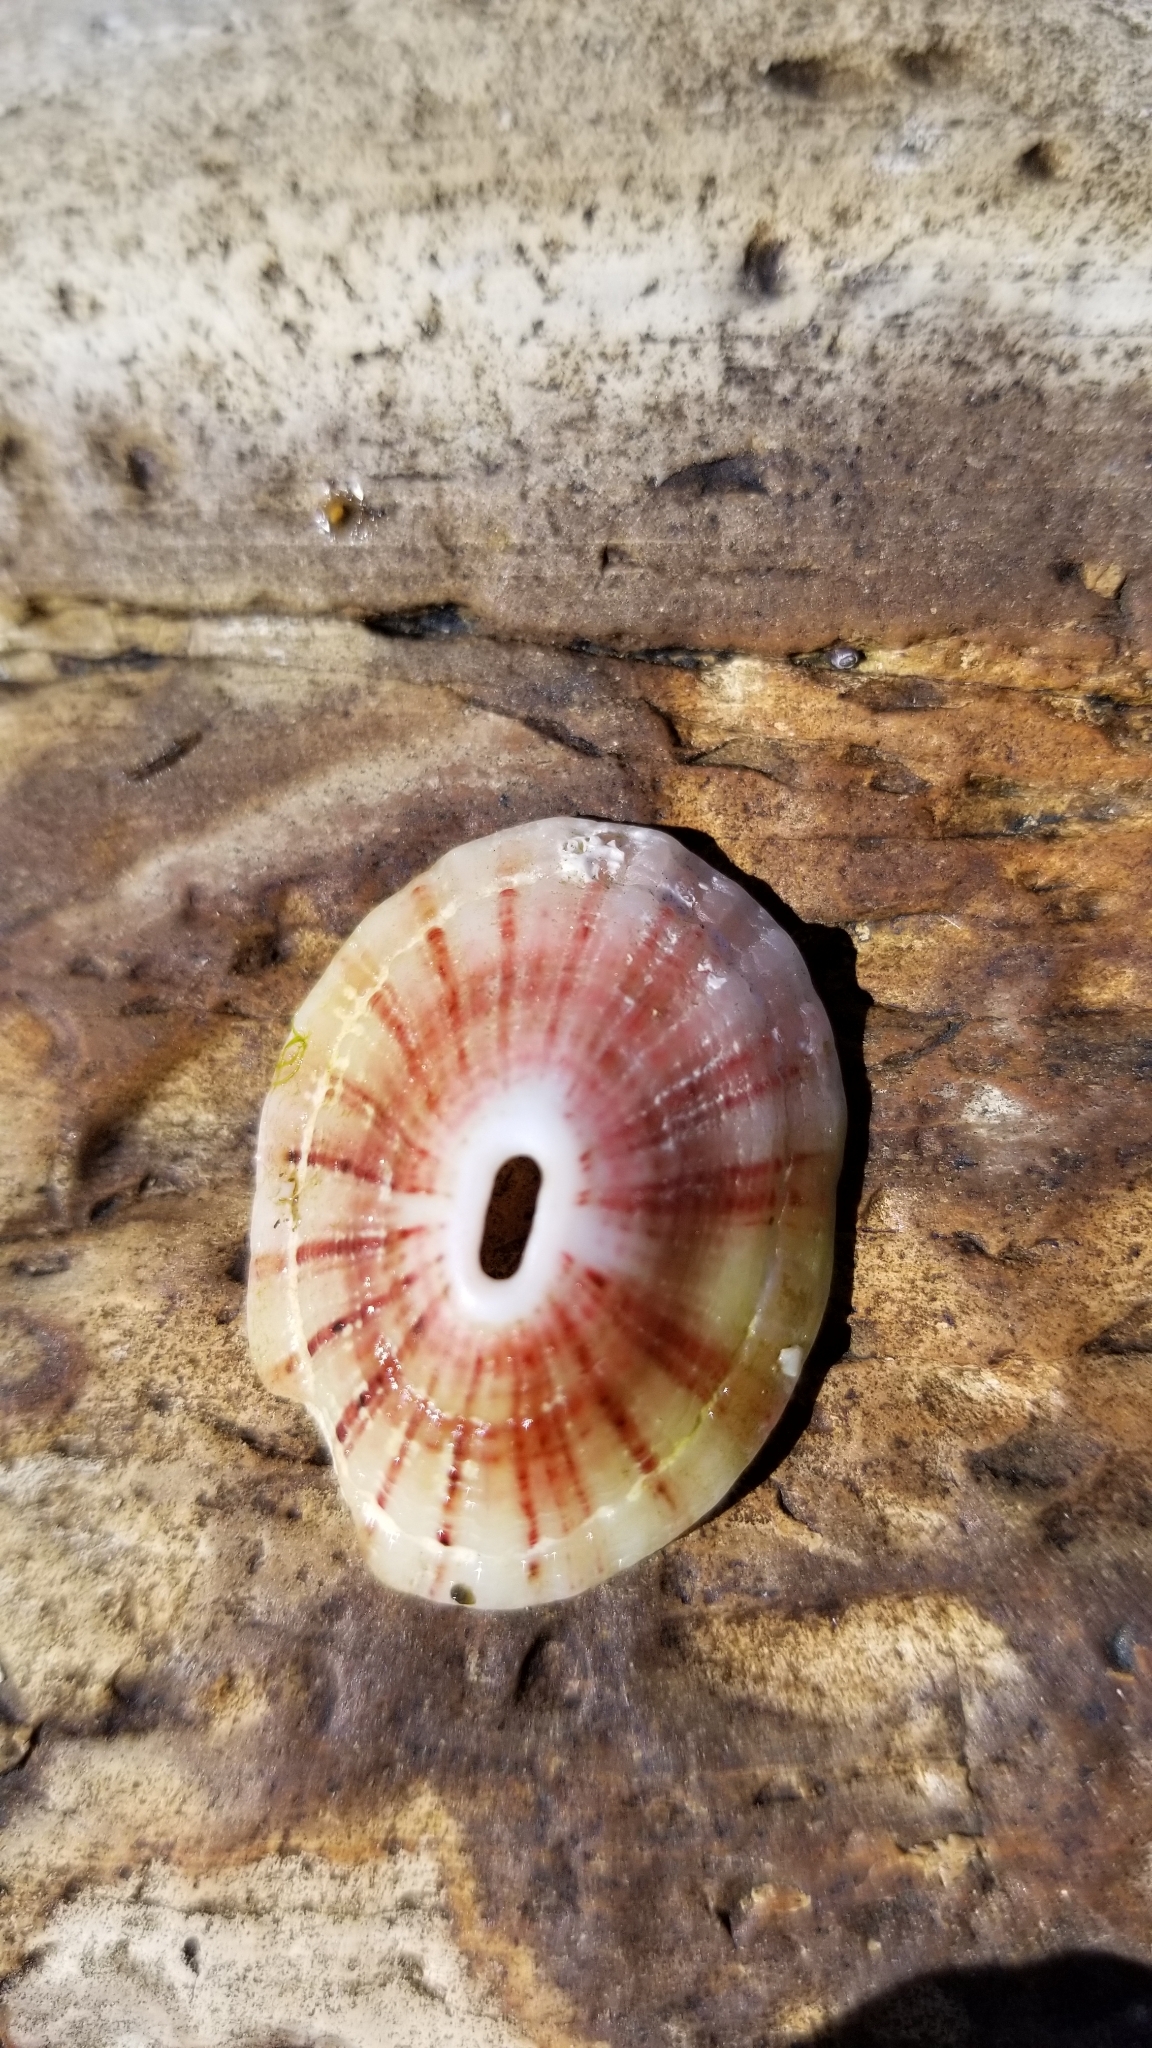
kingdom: Animalia
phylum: Mollusca
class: Gastropoda
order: Lepetellida
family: Fissurellidae
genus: Fissurella
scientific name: Fissurella volcano
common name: Volcano keyhole limpet
